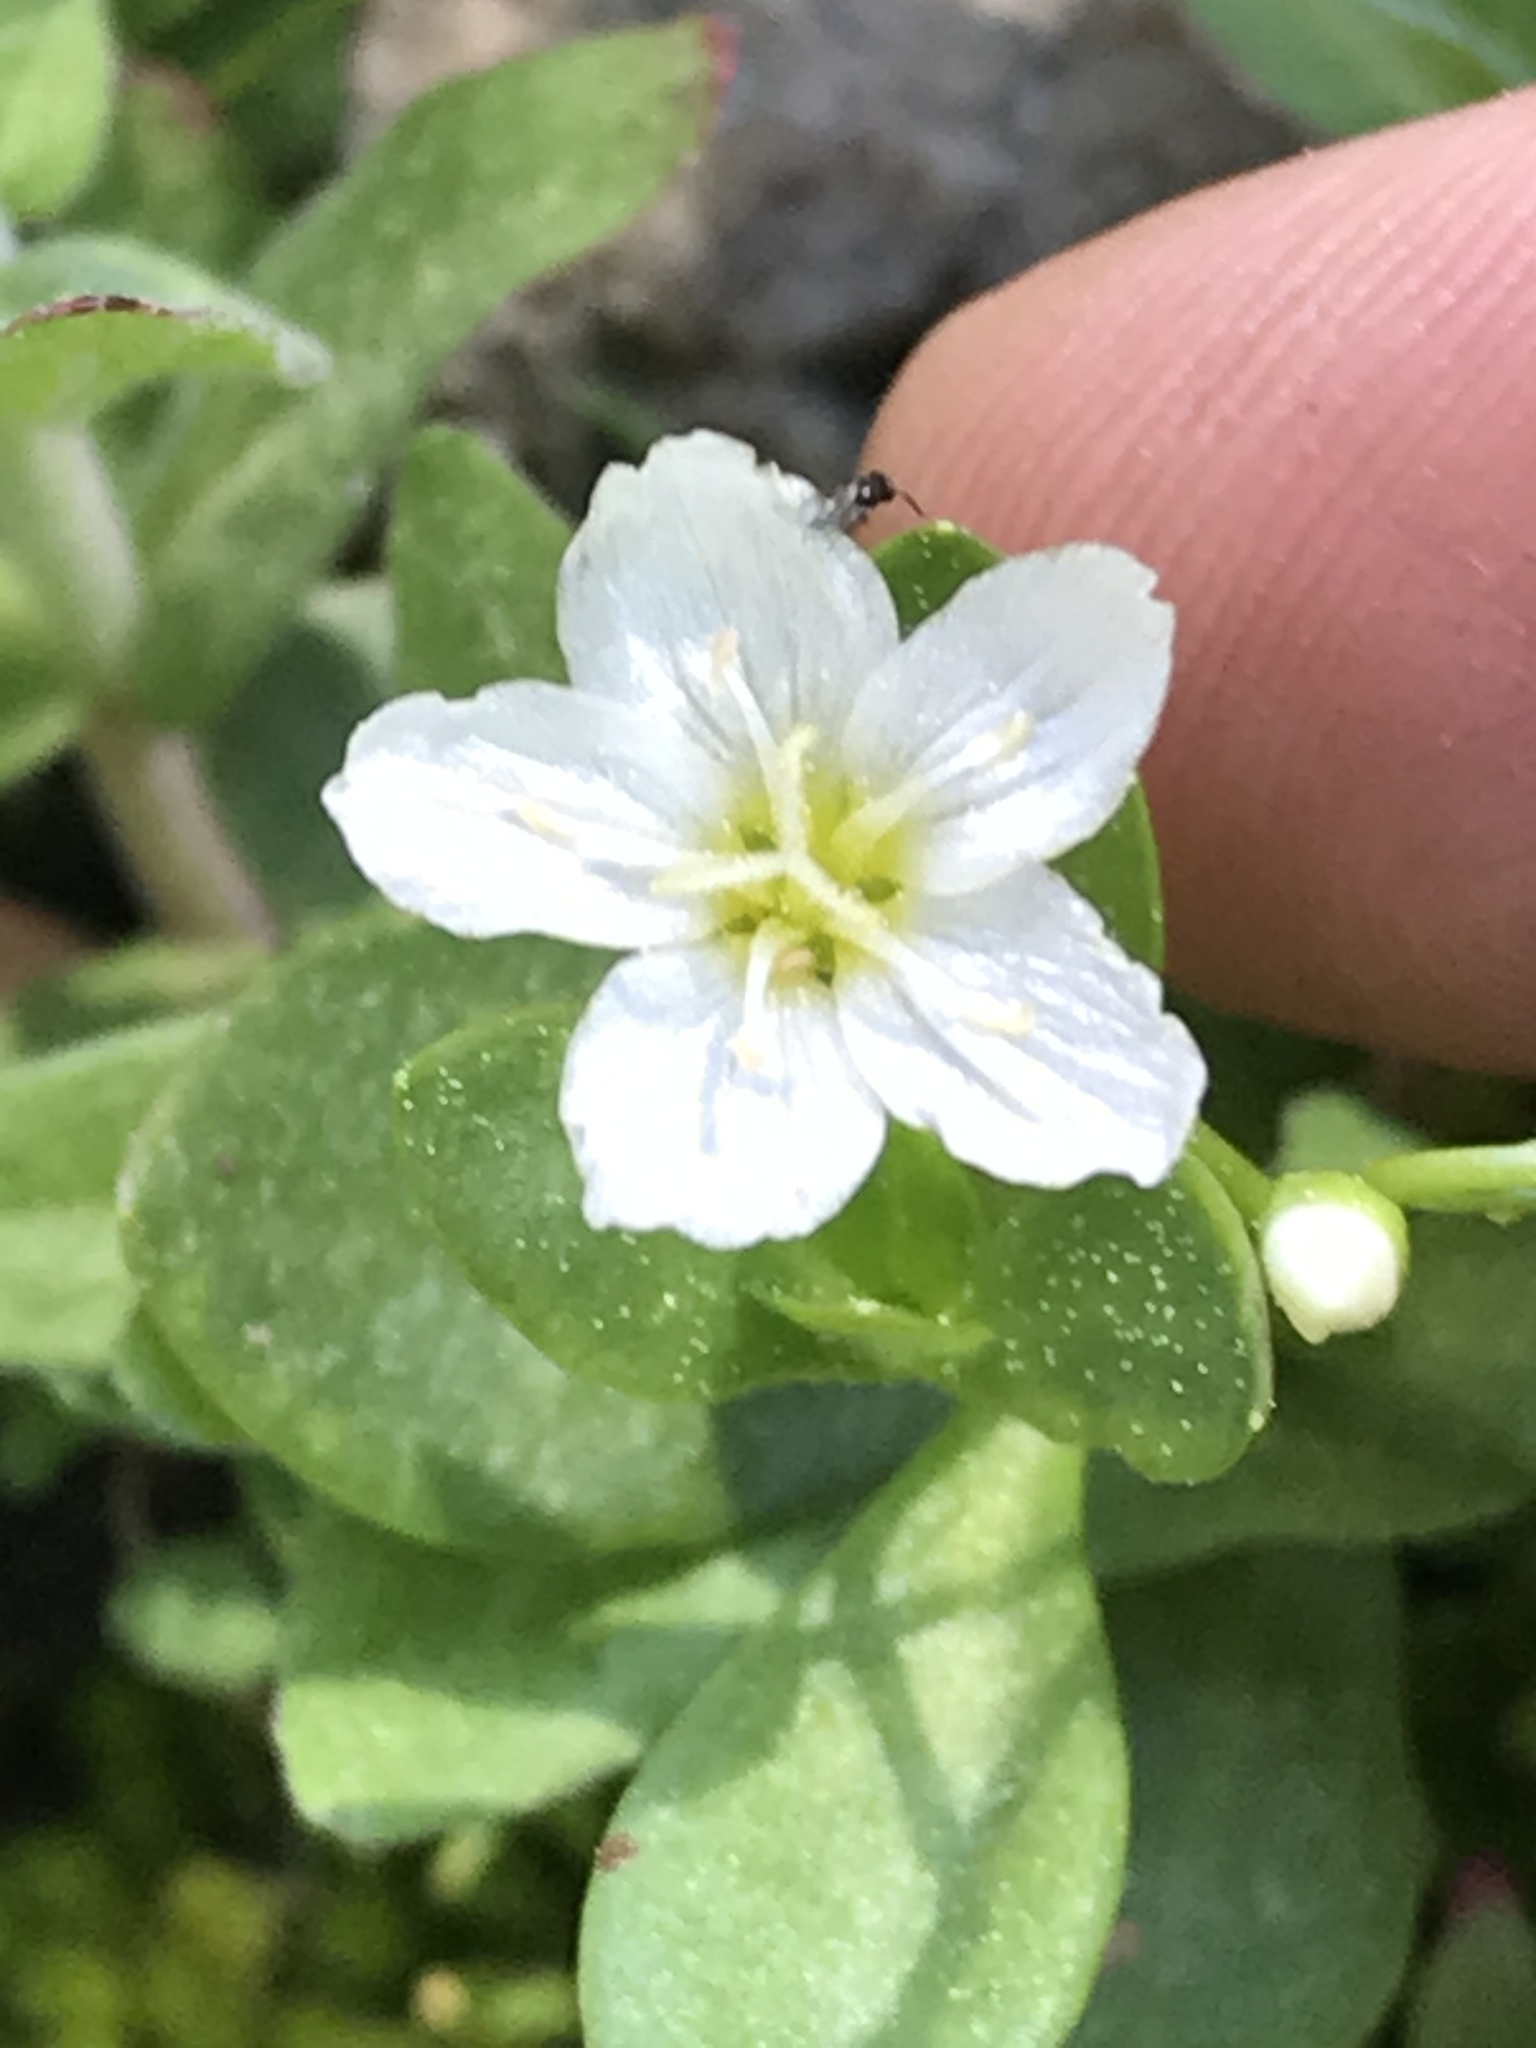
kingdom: Plantae
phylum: Tracheophyta
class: Magnoliopsida
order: Caryophyllales
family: Montiaceae
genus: Montia
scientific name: Montia chamissoi
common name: Chamisso's candyflower
